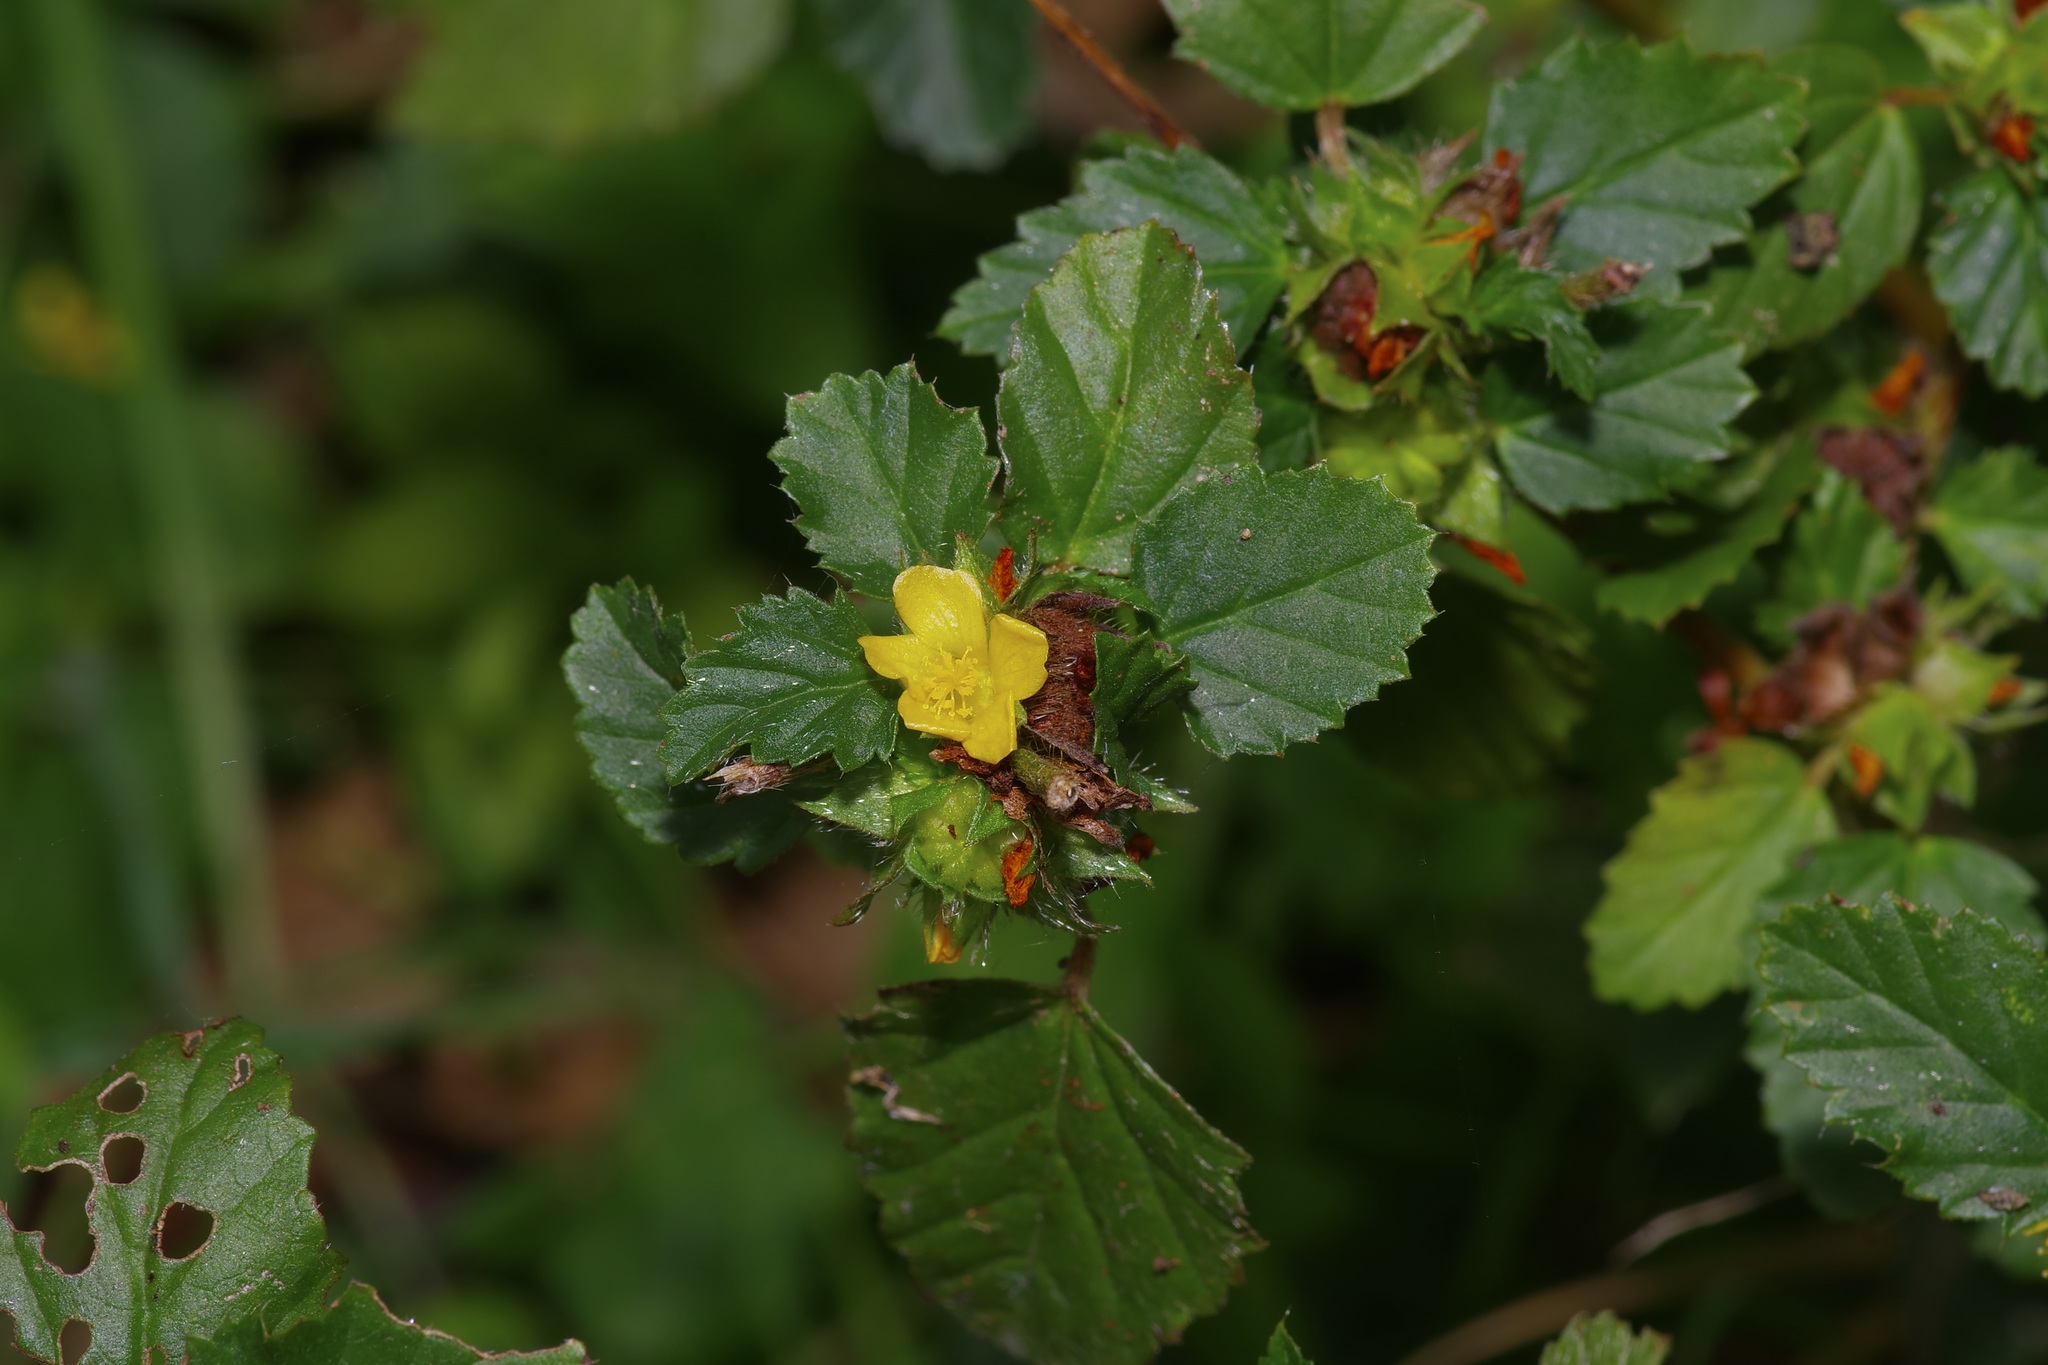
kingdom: Plantae
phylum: Tracheophyta
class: Magnoliopsida
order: Malvales
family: Malvaceae
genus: Malvastrum
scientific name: Malvastrum coromandelianum
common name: Threelobe false mallow
